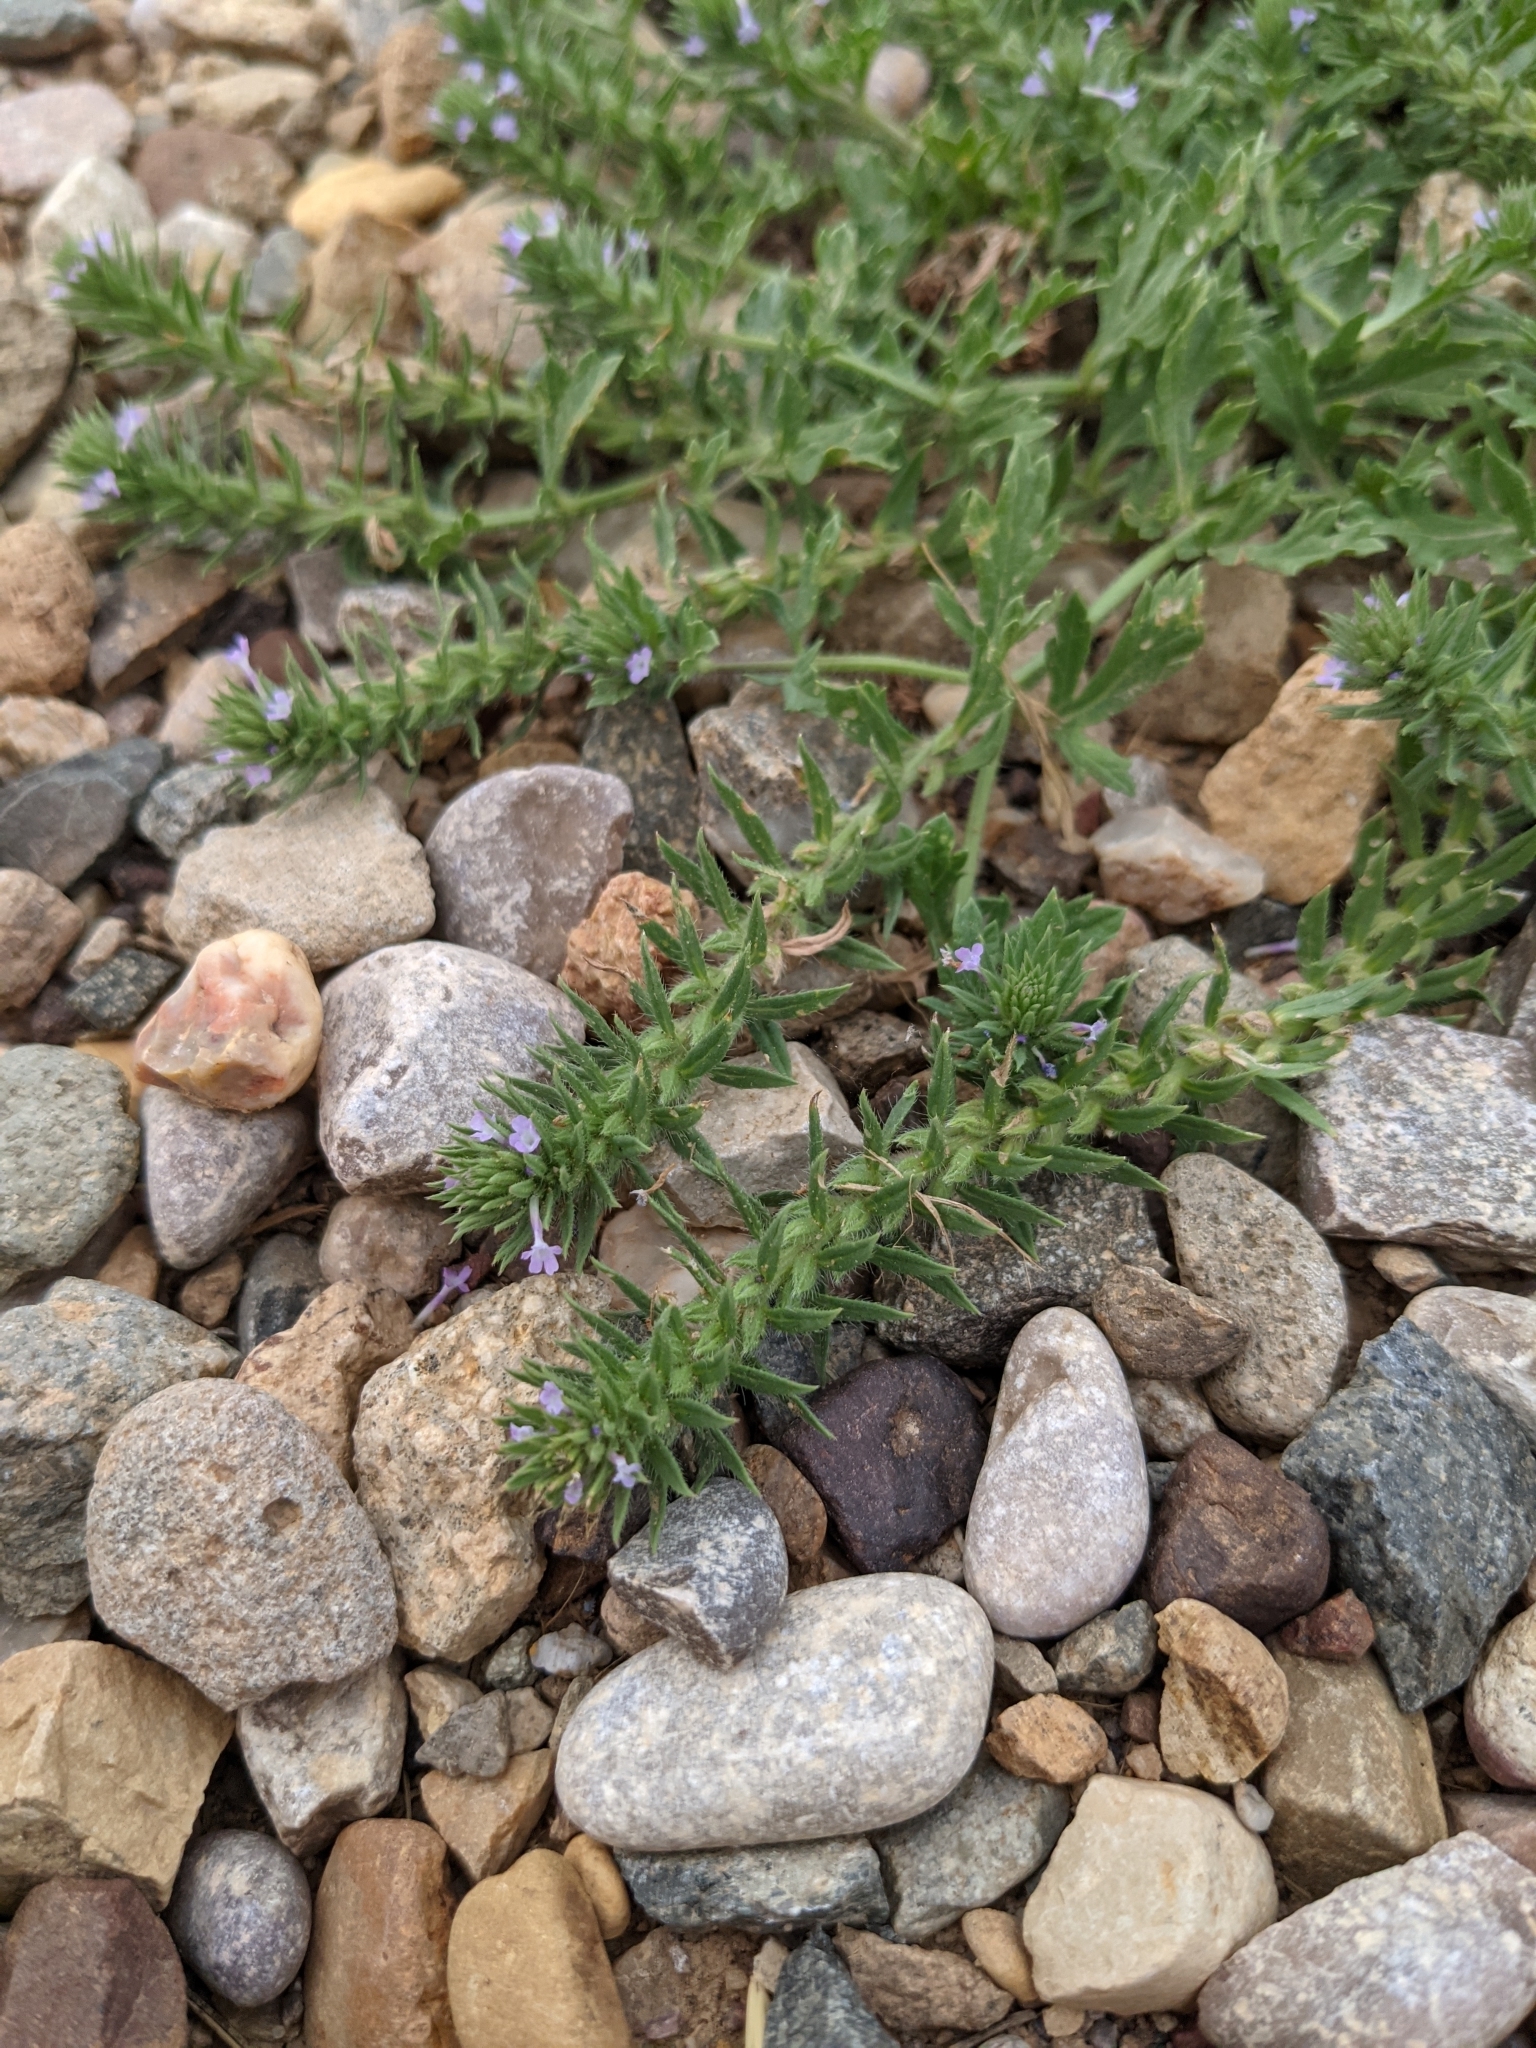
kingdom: Plantae
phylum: Tracheophyta
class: Magnoliopsida
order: Lamiales
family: Verbenaceae
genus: Verbena
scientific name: Verbena bracteata
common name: Bracted vervain
